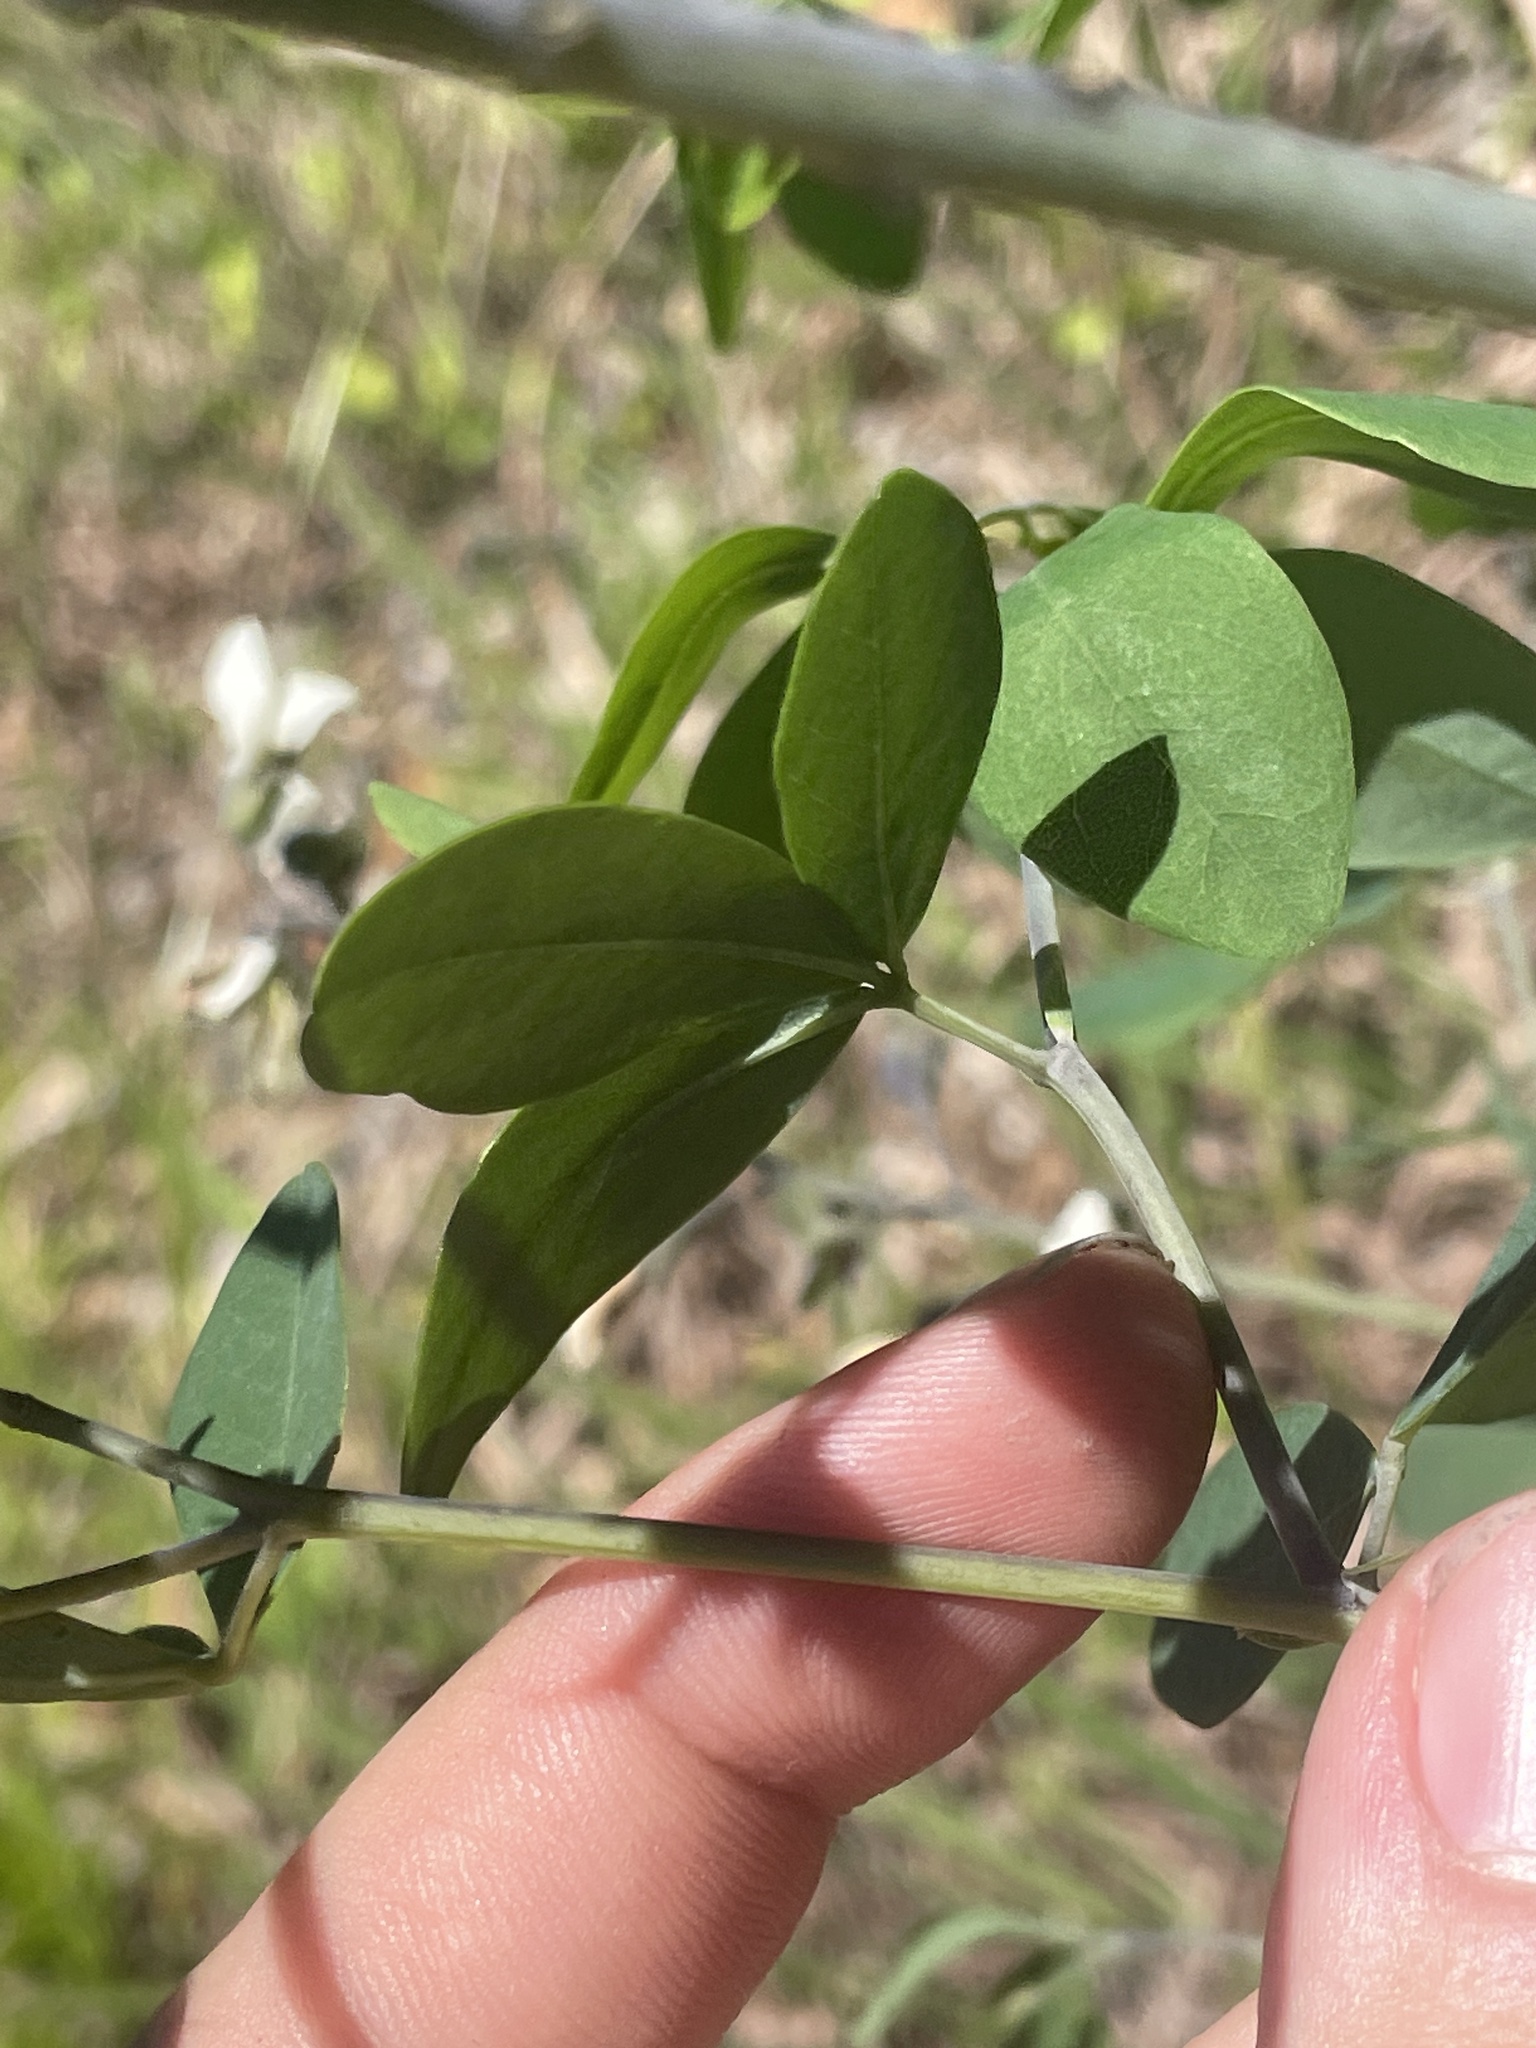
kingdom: Plantae
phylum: Tracheophyta
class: Magnoliopsida
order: Fabales
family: Fabaceae
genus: Baptisia
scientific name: Baptisia alba
